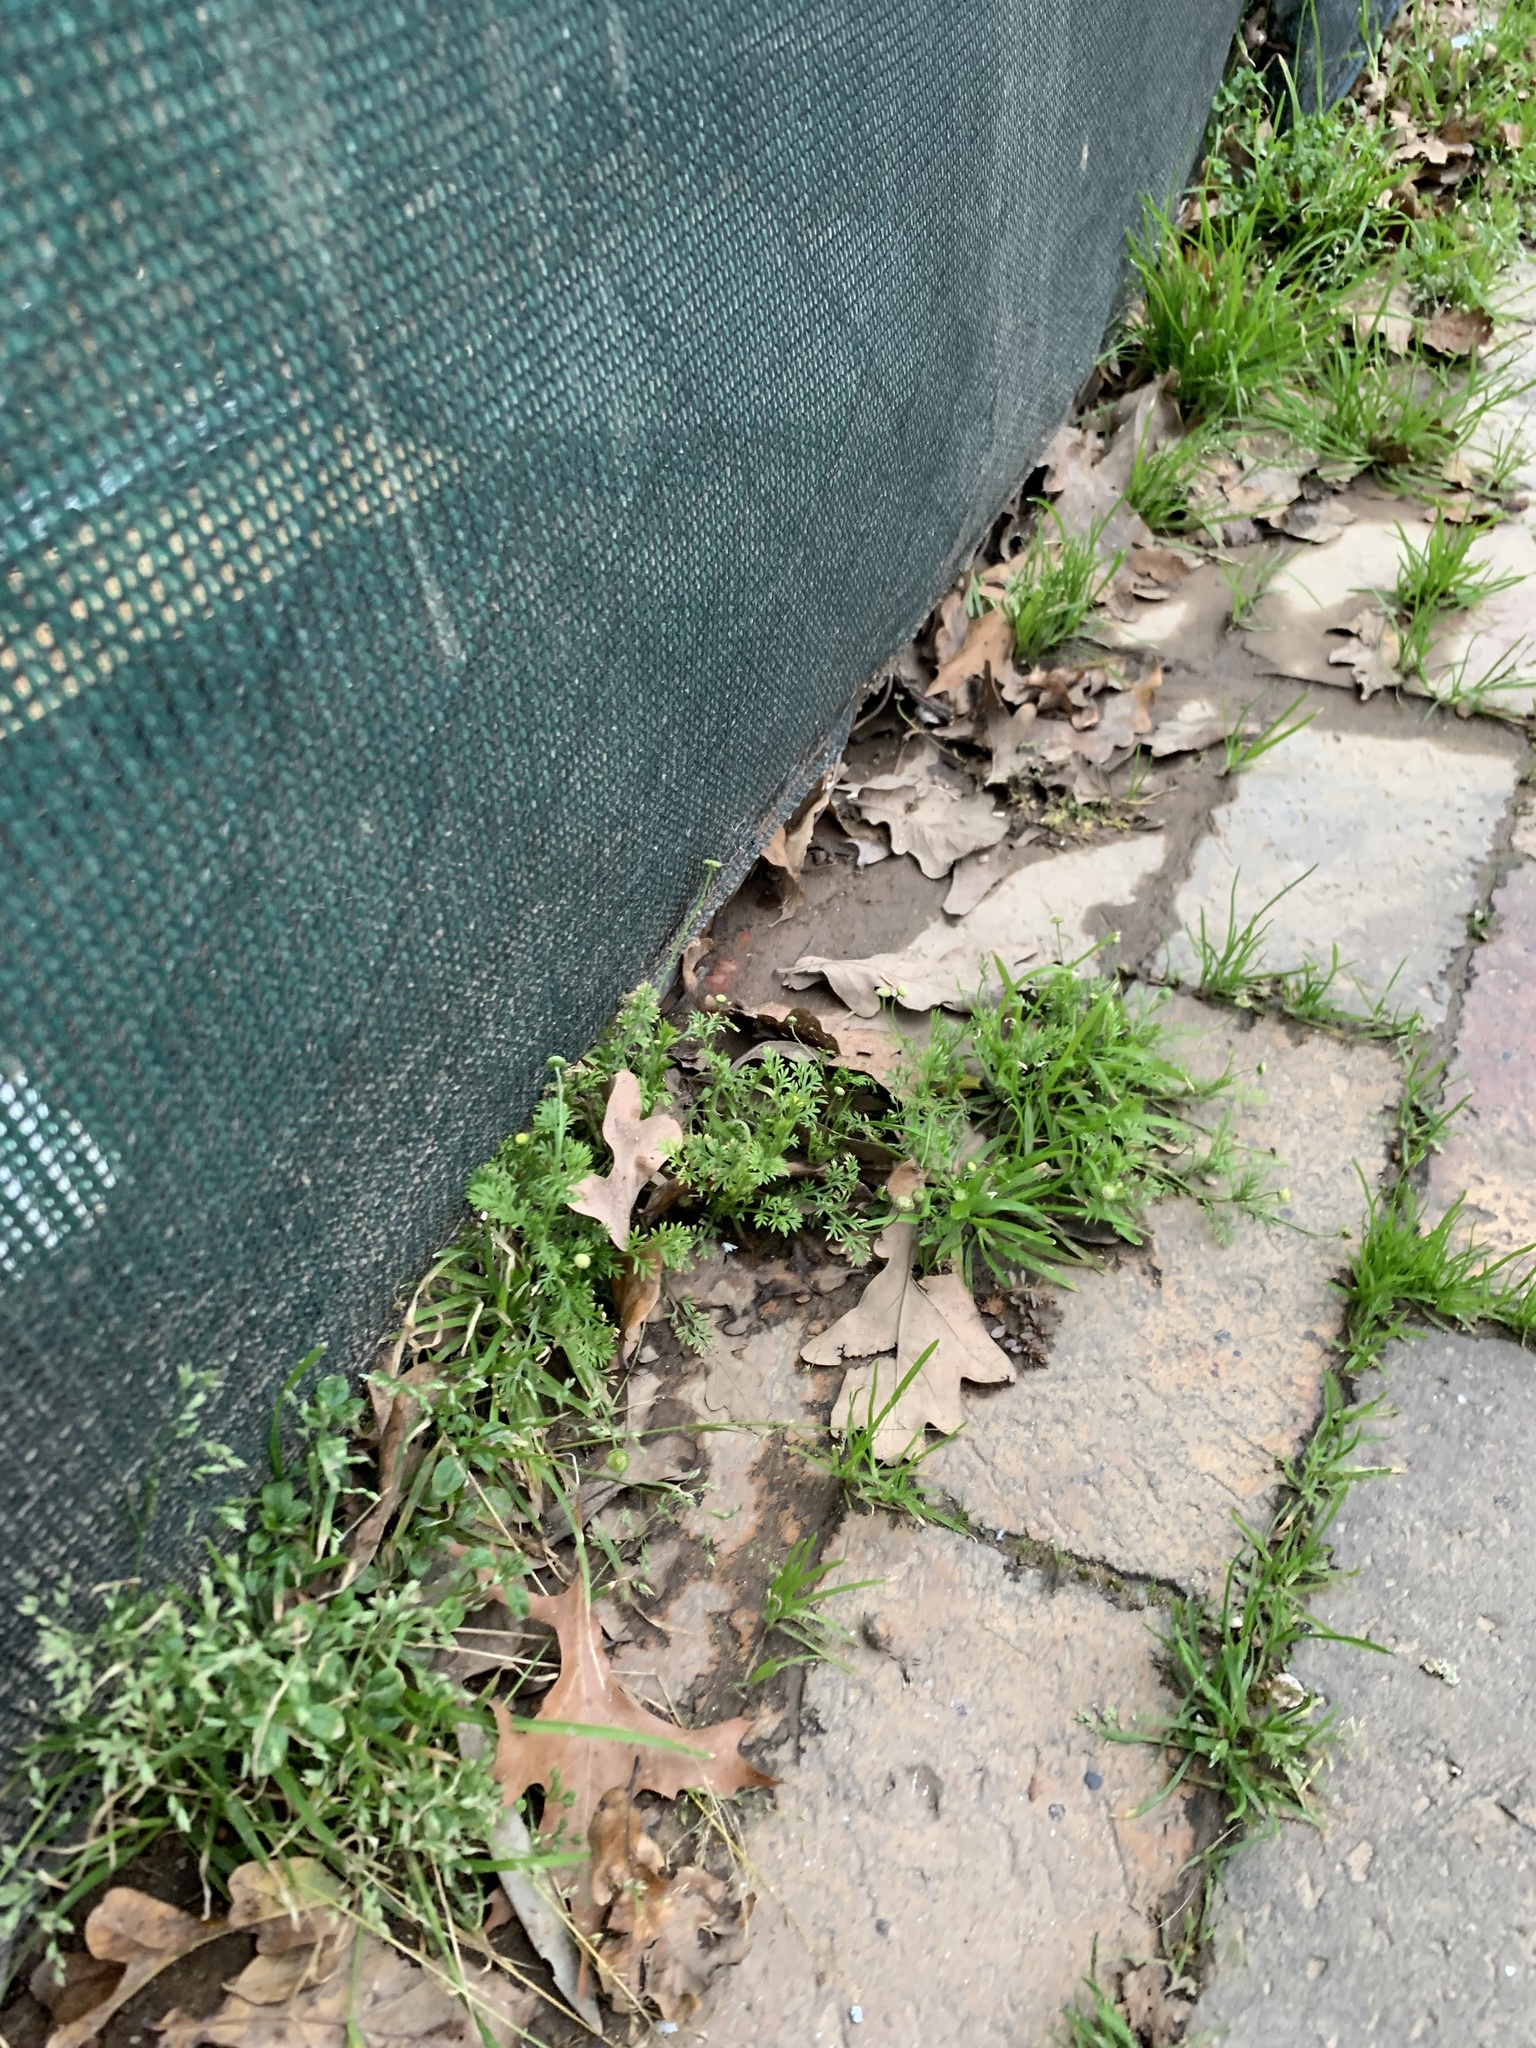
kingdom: Plantae
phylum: Tracheophyta
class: Magnoliopsida
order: Asterales
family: Asteraceae
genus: Cotula
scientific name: Cotula australis
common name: Australian waterbuttons
